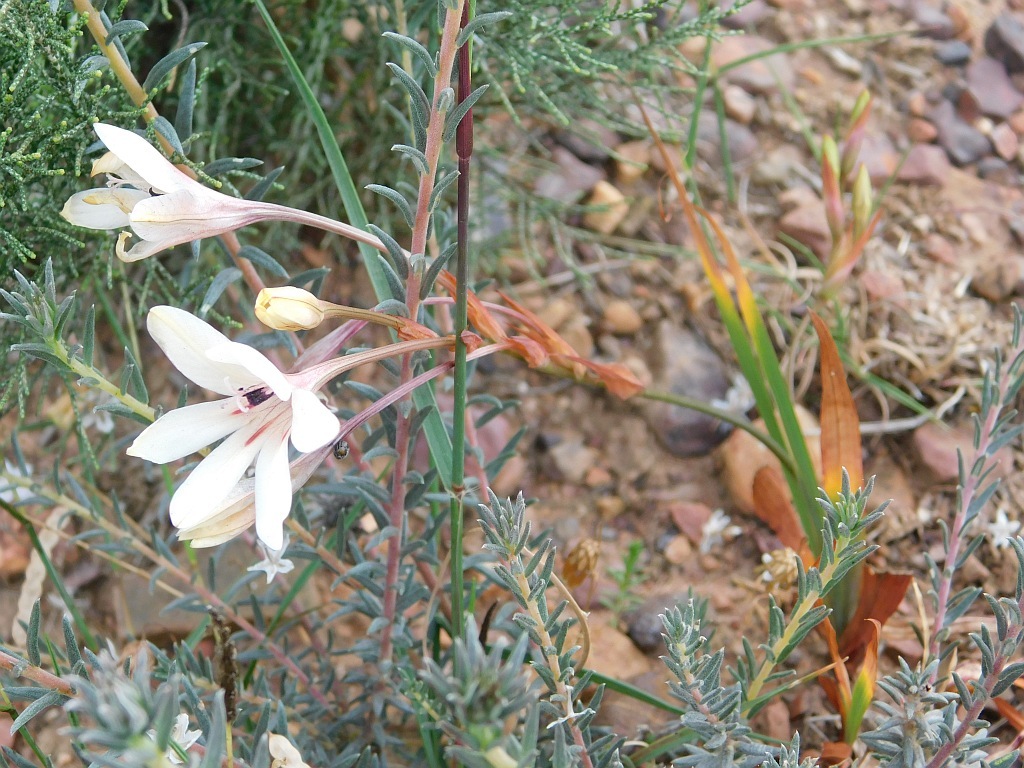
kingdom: Plantae
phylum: Tracheophyta
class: Liliopsida
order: Asparagales
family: Iridaceae
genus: Tritonia
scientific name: Tritonia flabellifolia
